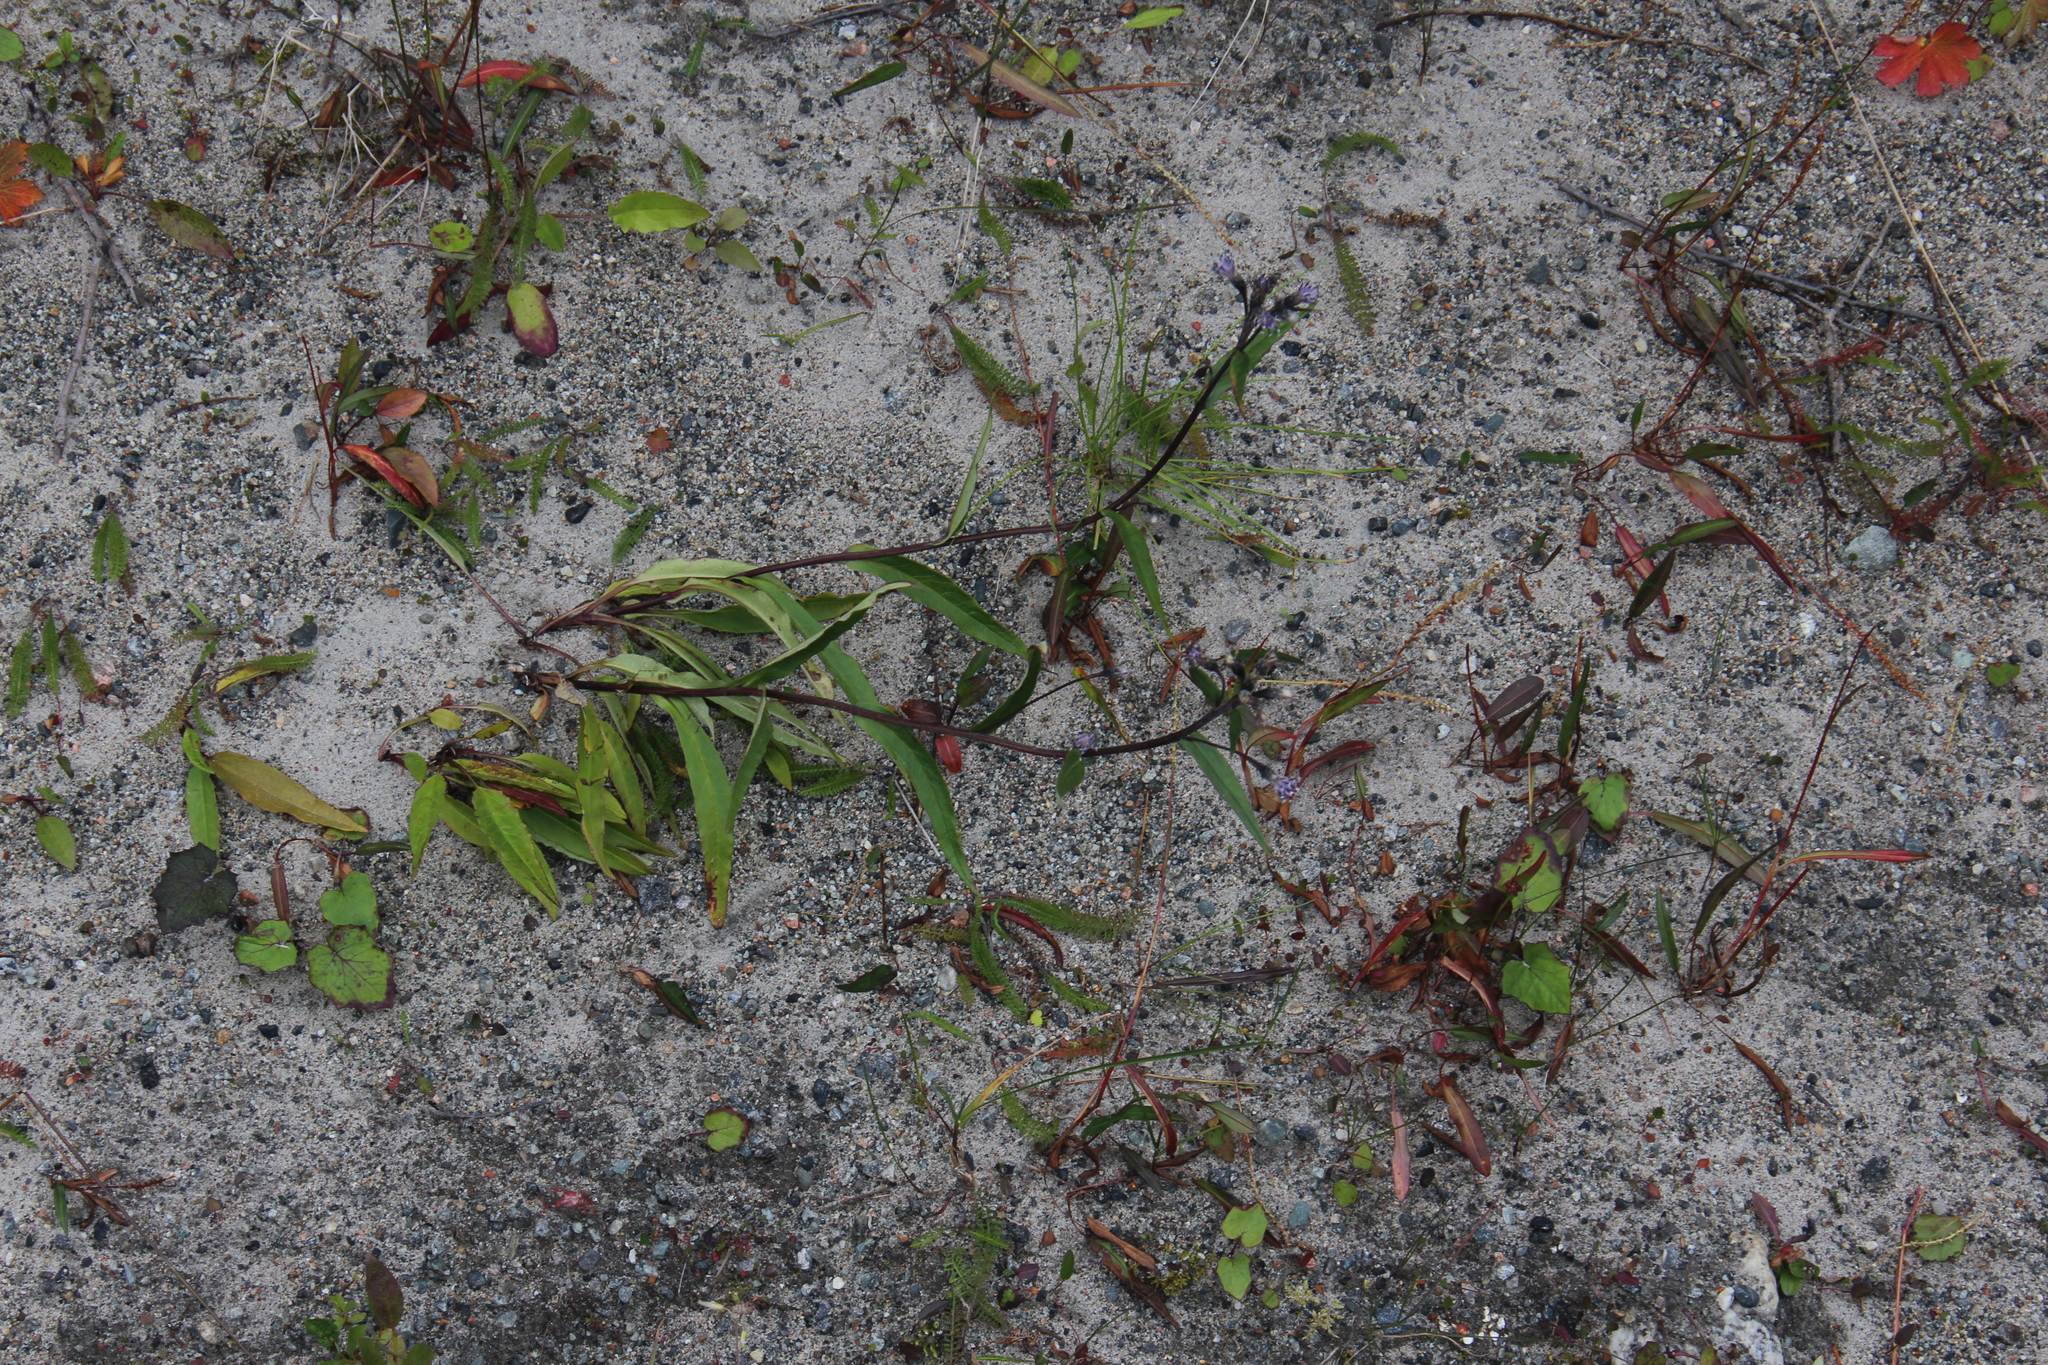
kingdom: Plantae
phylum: Tracheophyta
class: Magnoliopsida
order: Asterales
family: Asteraceae
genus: Saussurea
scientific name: Saussurea alpina
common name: Alpine saw-wort
